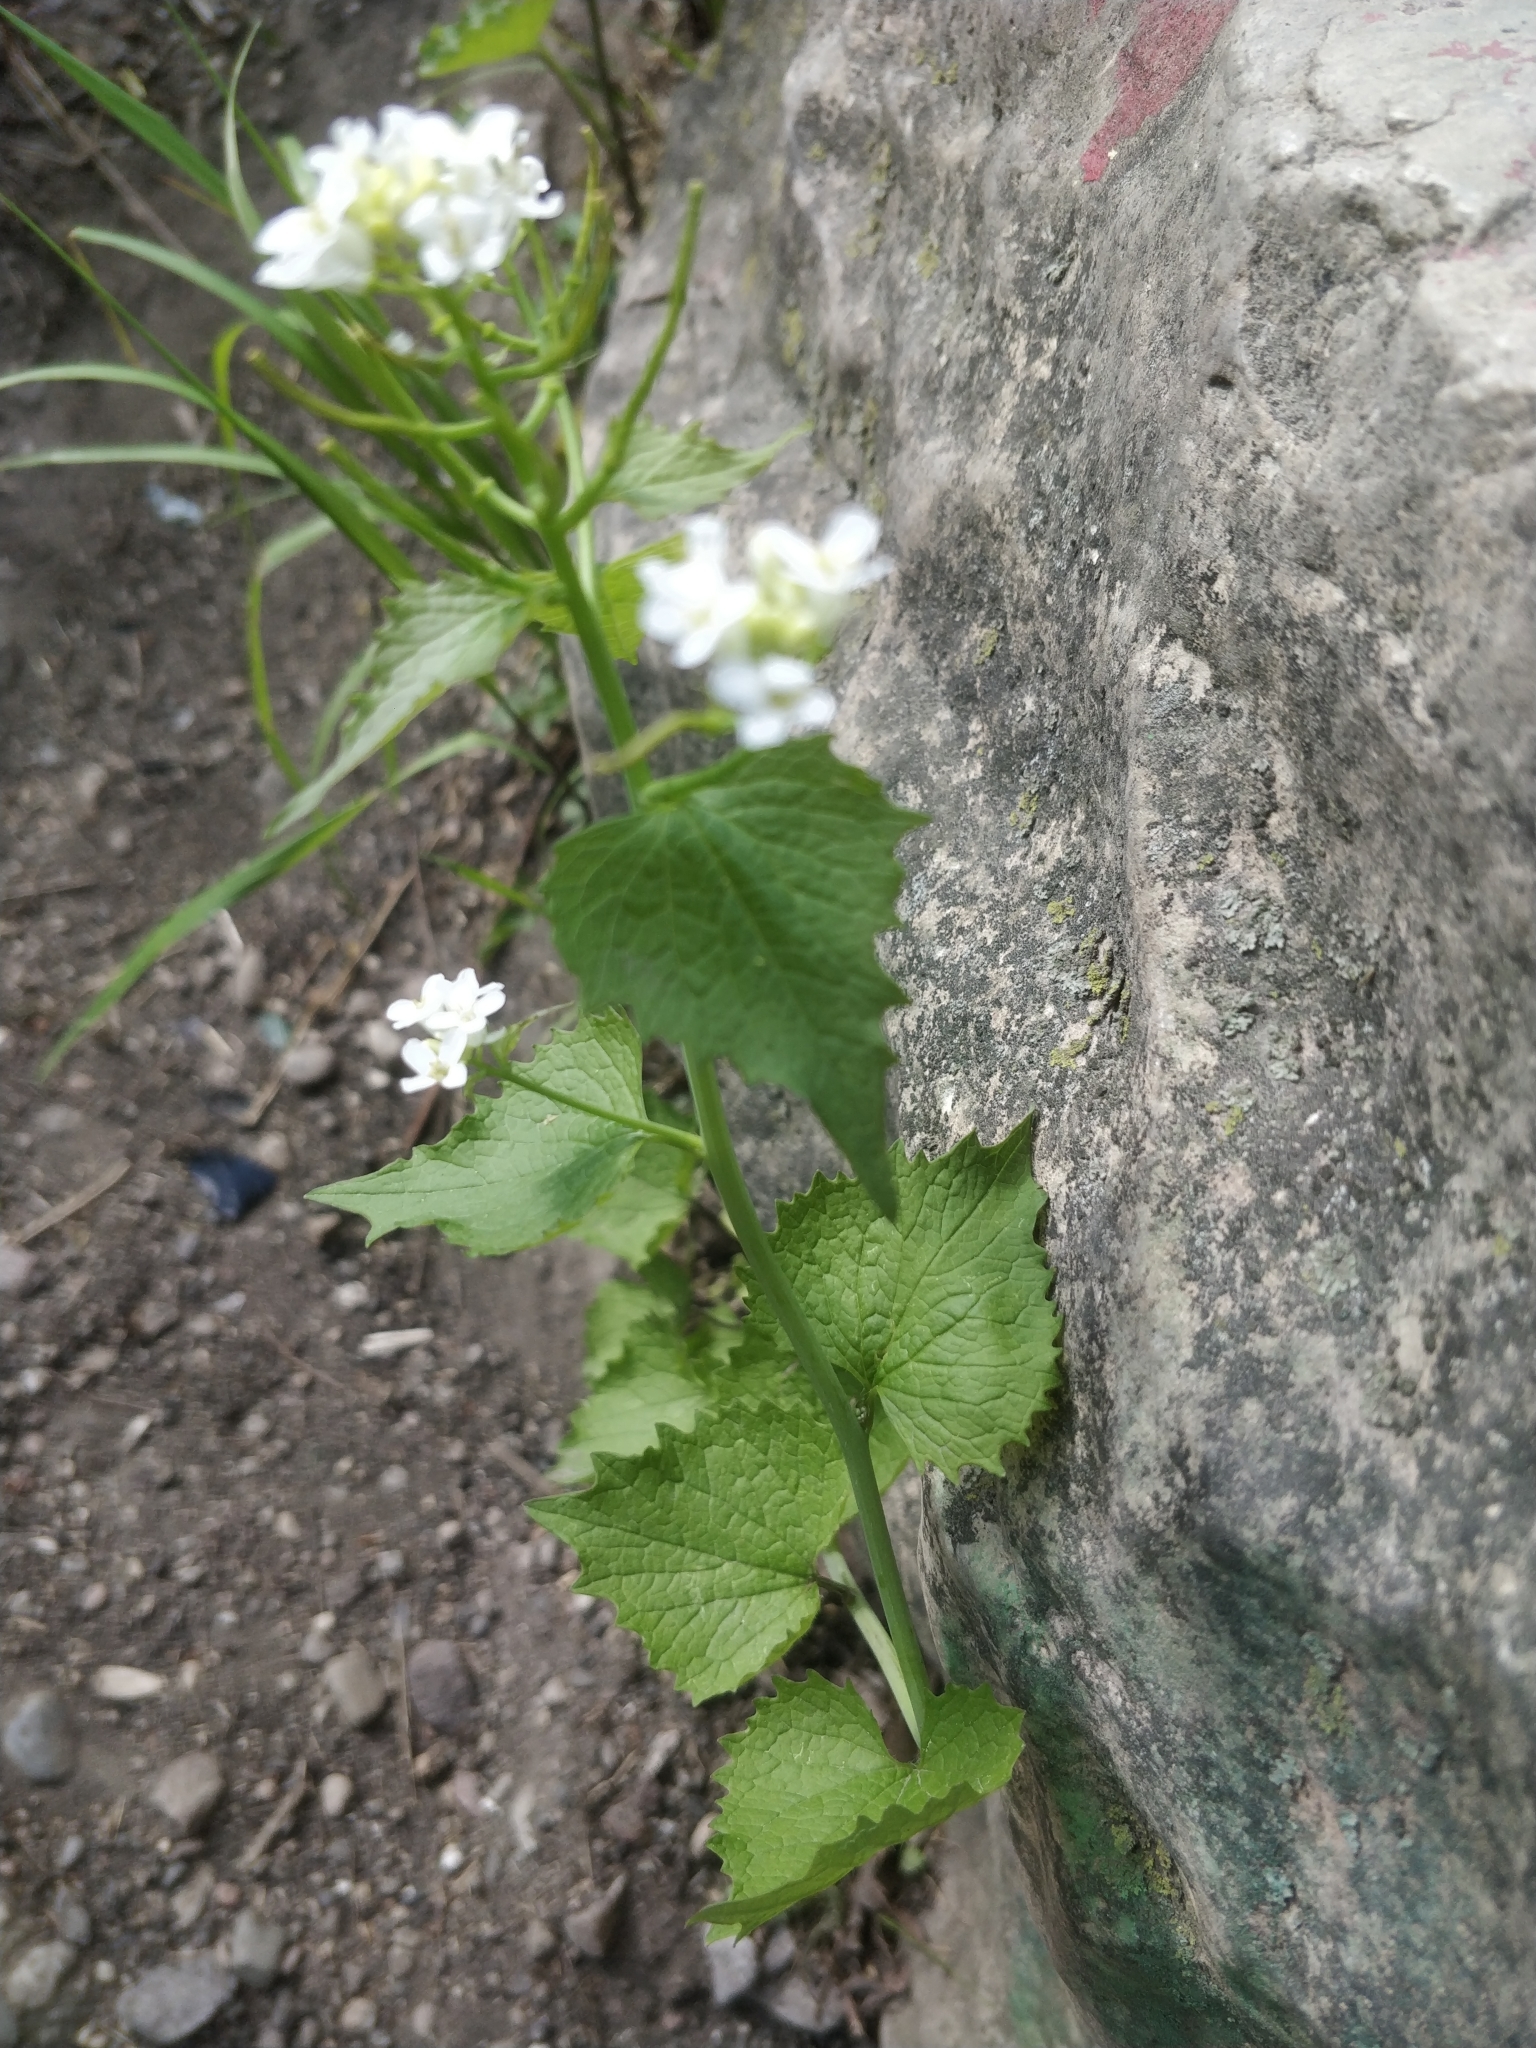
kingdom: Plantae
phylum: Tracheophyta
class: Magnoliopsida
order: Brassicales
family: Brassicaceae
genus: Alliaria
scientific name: Alliaria petiolata
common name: Garlic mustard
